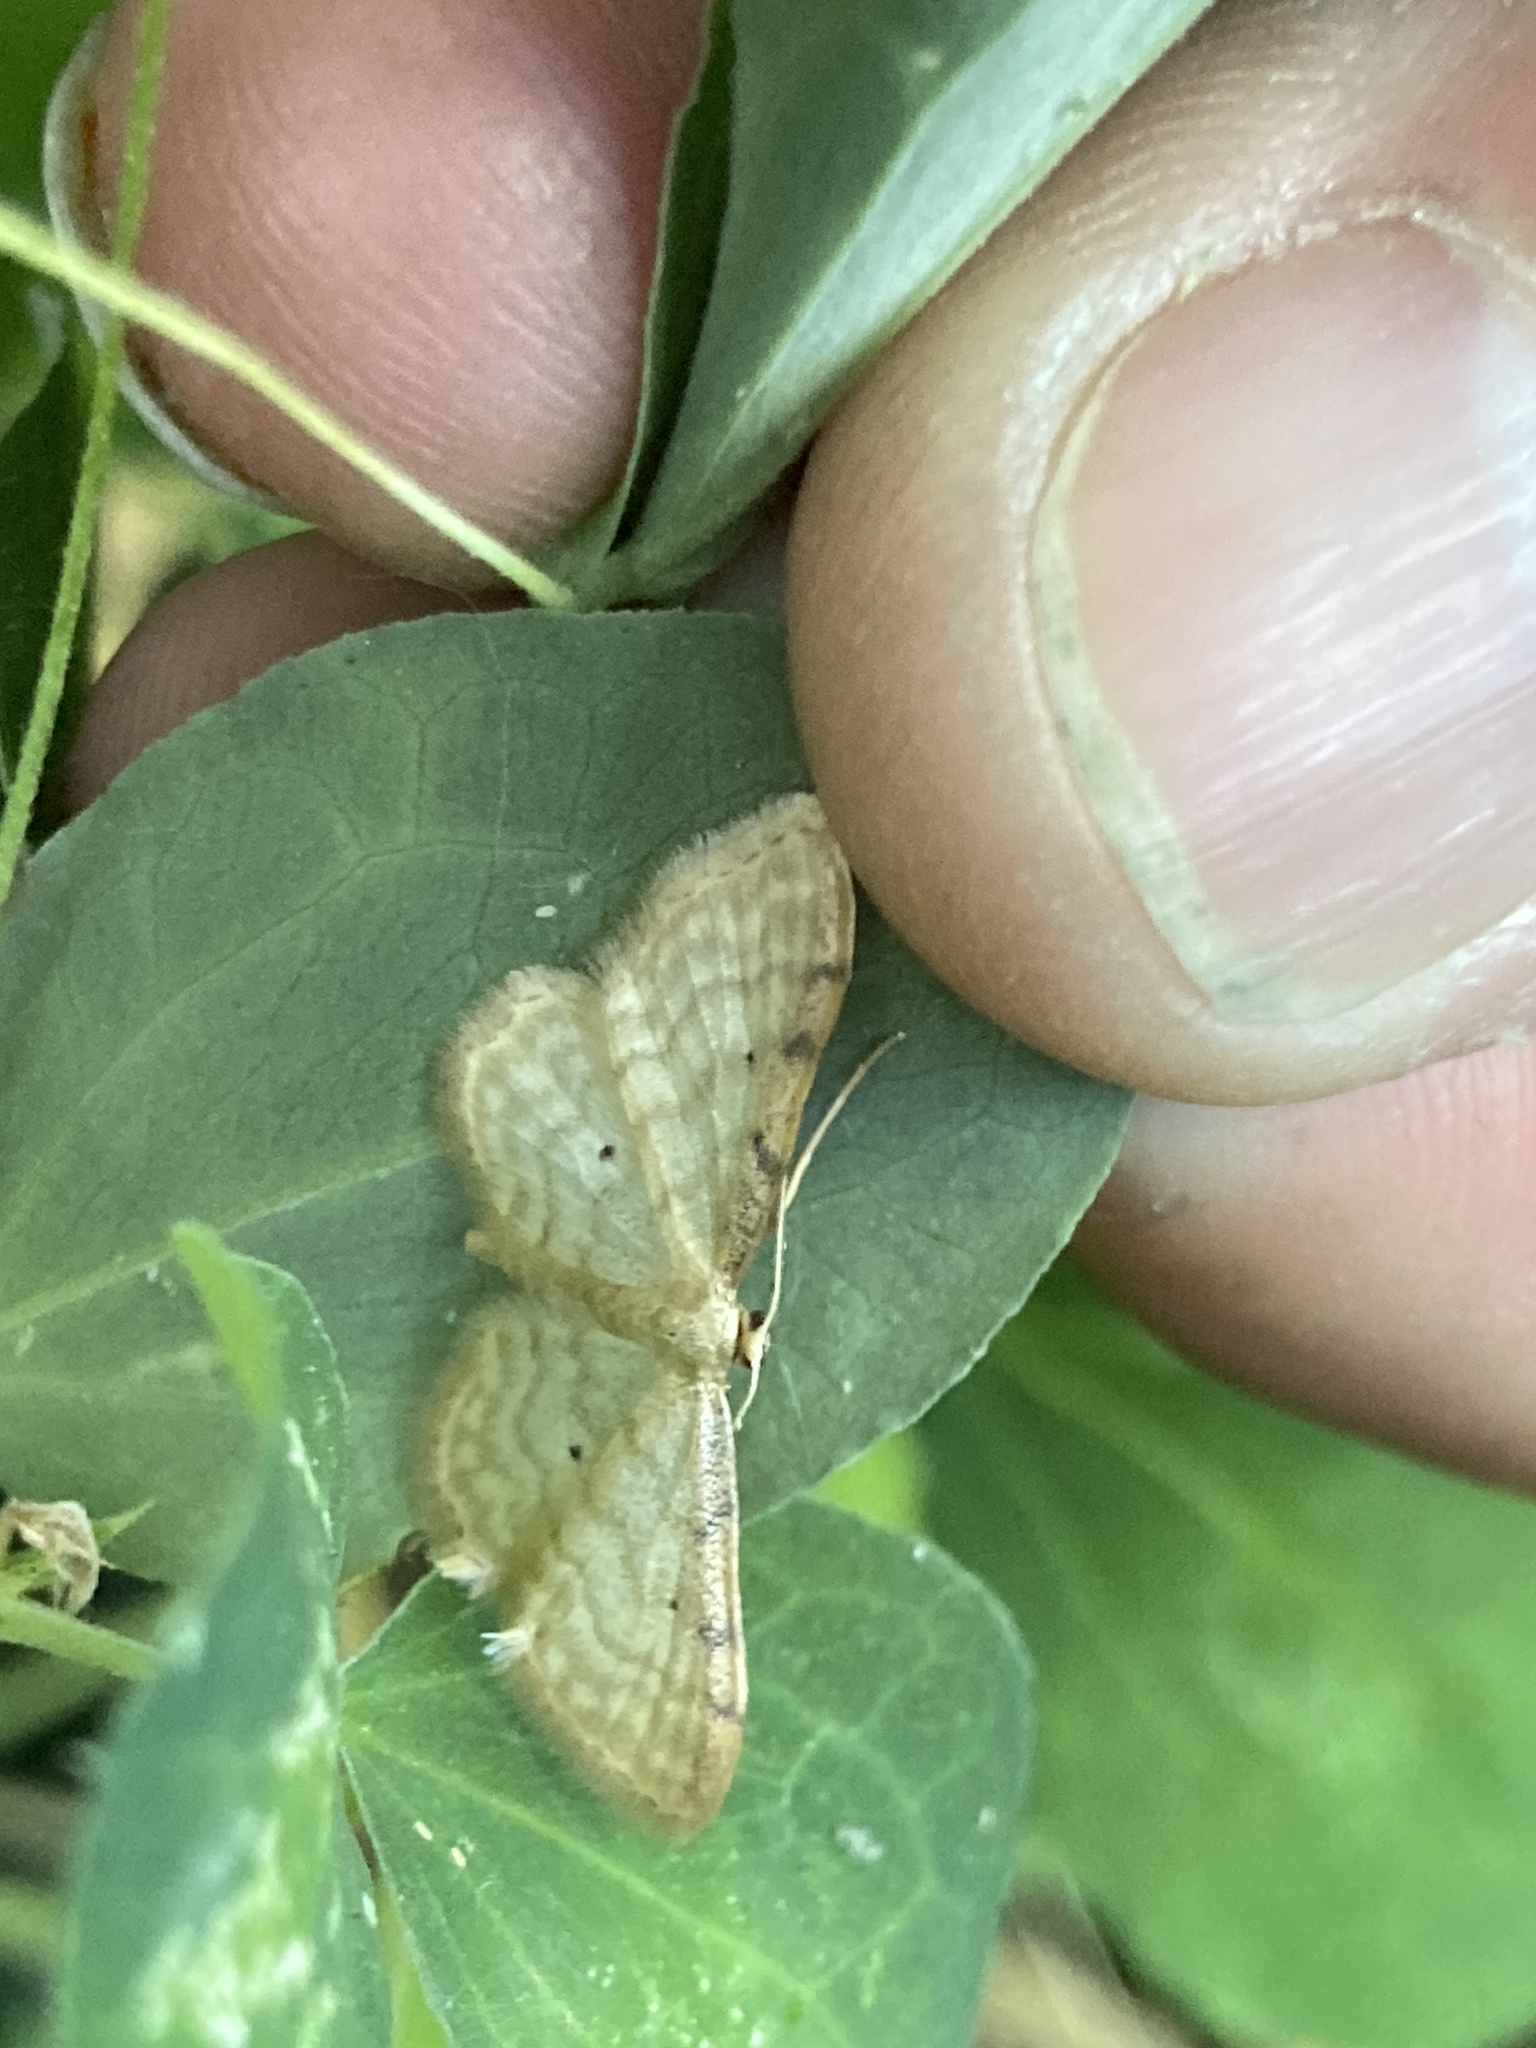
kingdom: Animalia
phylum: Arthropoda
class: Insecta
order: Lepidoptera
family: Geometridae
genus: Idaea
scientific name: Idaea fuscovenosa
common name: Dwarf cream wave
